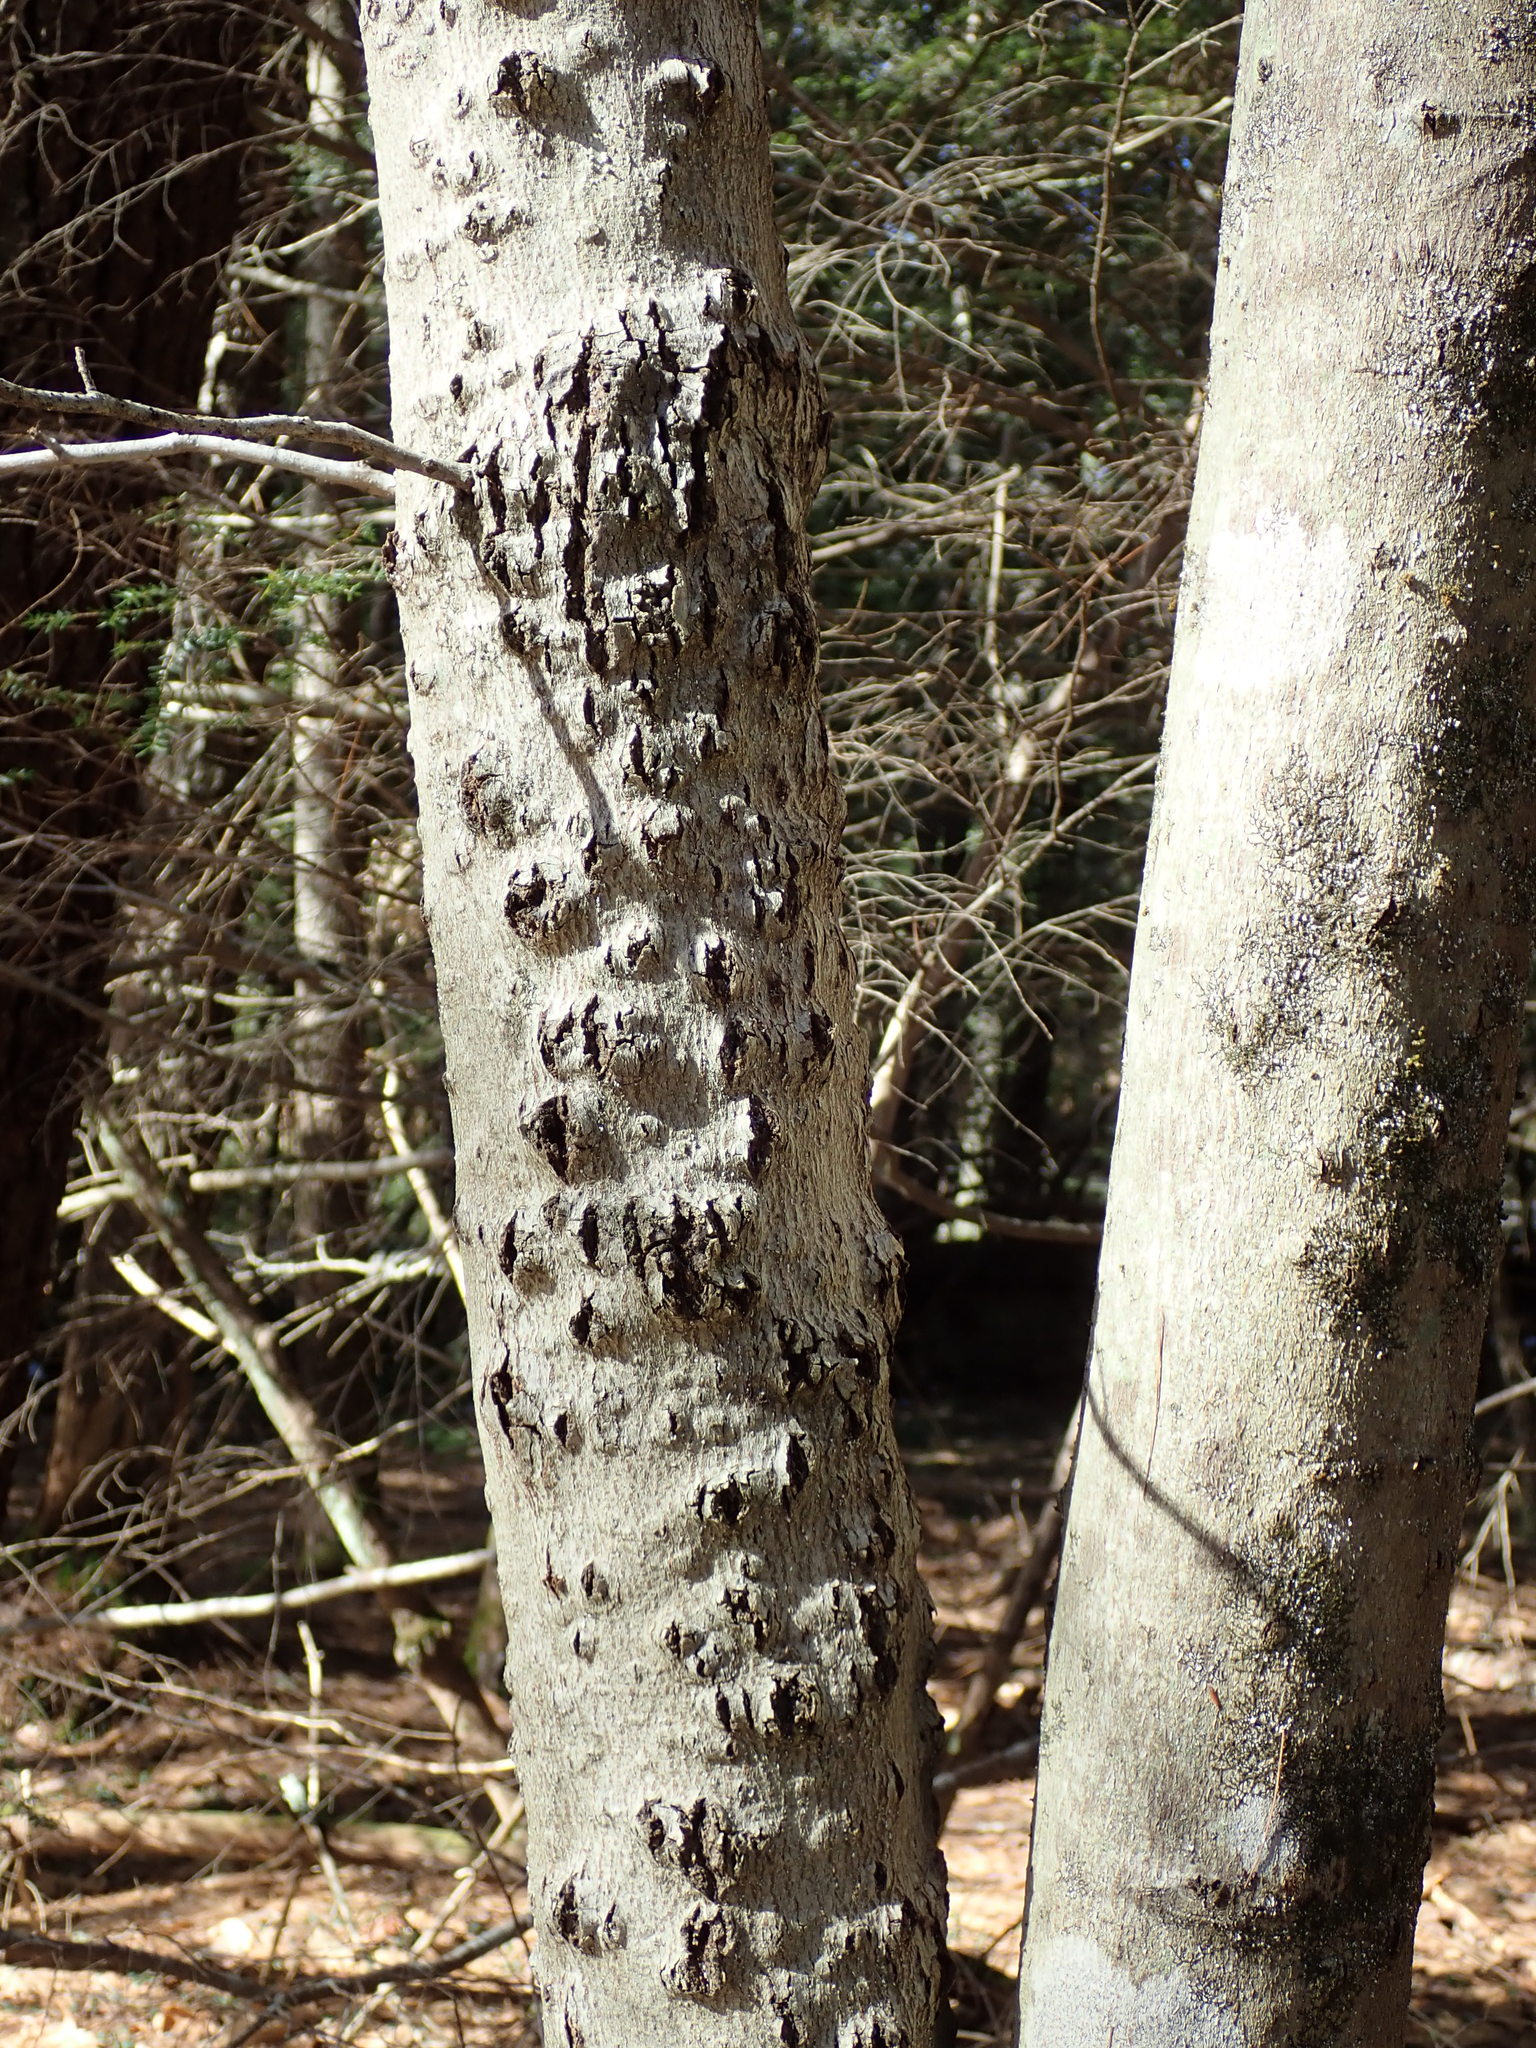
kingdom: Fungi
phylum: Ascomycota
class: Sordariomycetes
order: Hypocreales
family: Nectriaceae
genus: Neonectria
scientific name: Neonectria faginata
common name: Beech bark canker
